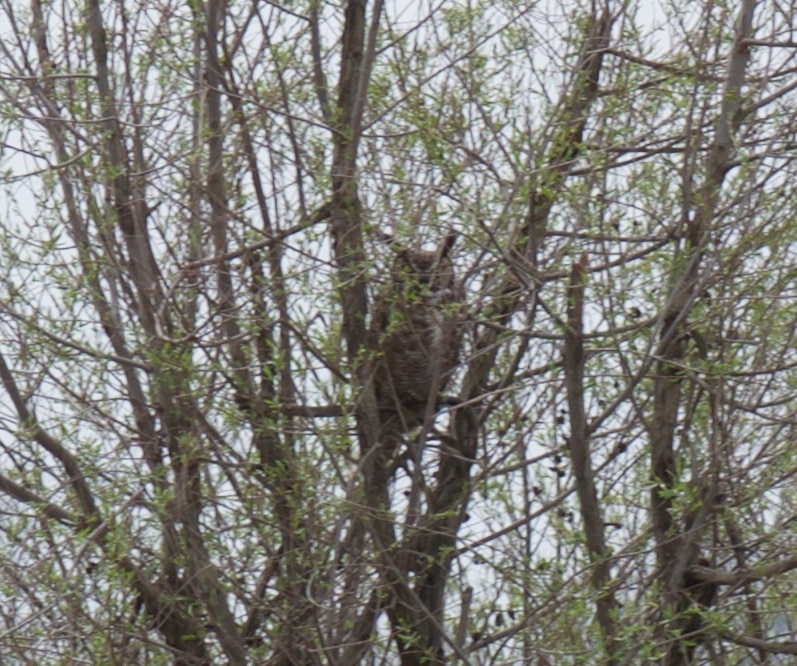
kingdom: Animalia
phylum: Chordata
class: Aves
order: Strigiformes
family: Strigidae
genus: Bubo
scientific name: Bubo virginianus
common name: Great horned owl
